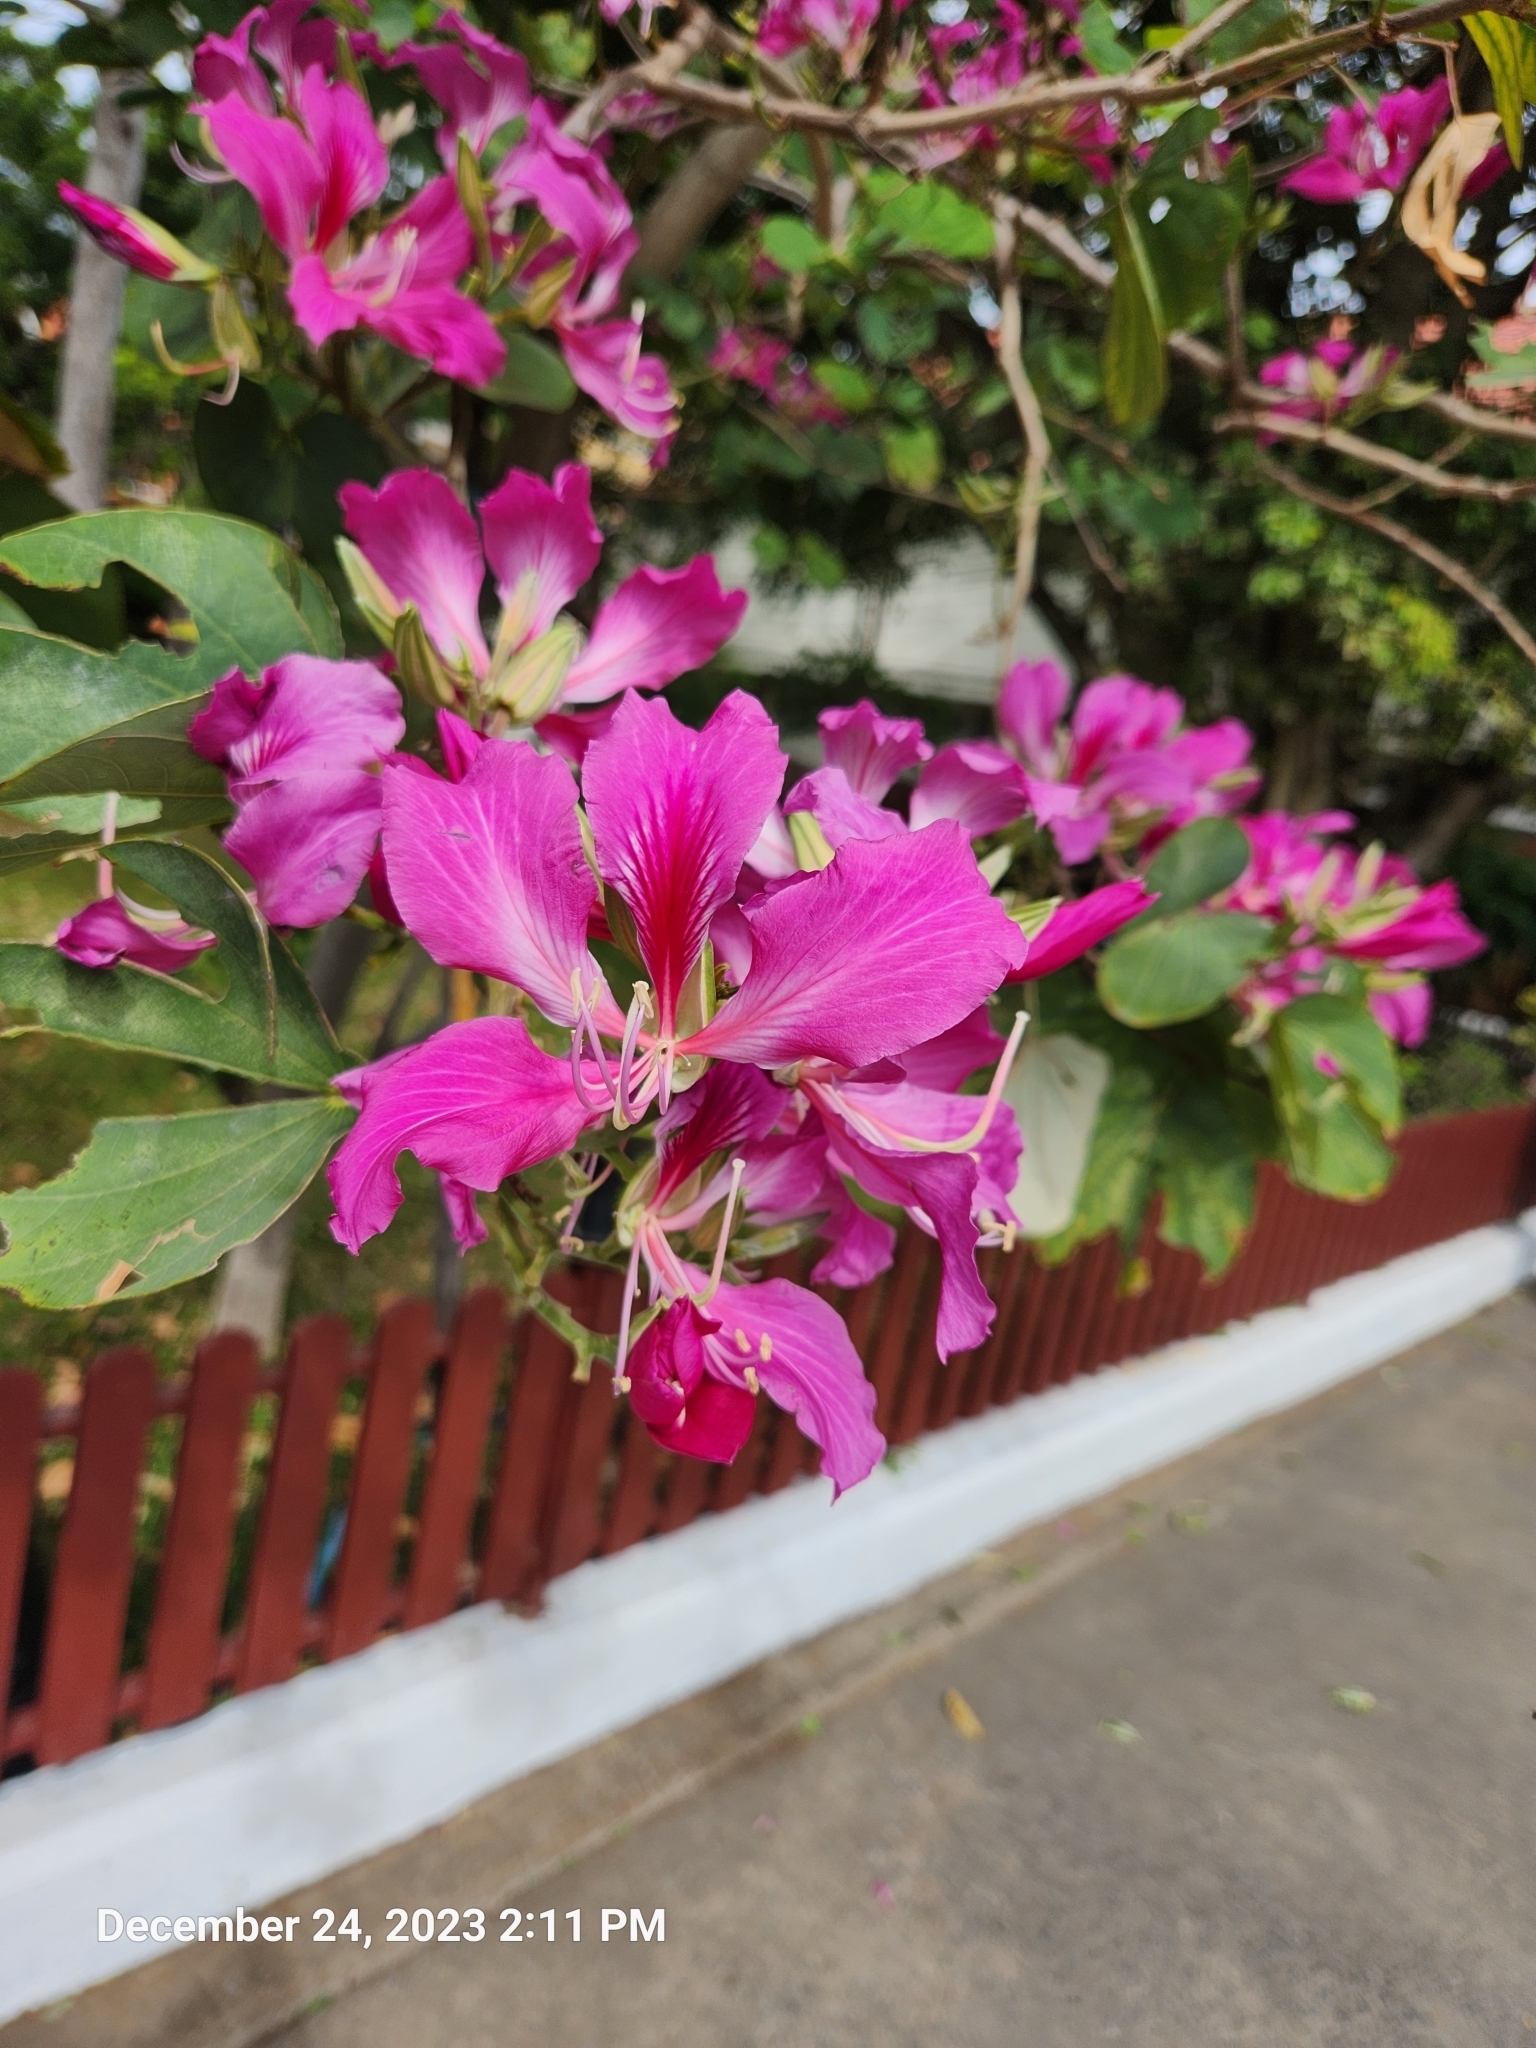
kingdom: Plantae
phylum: Tracheophyta
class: Magnoliopsida
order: Fabales
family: Fabaceae
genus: Bauhinia
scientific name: Bauhinia purpurea
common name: Butterfly-tree
